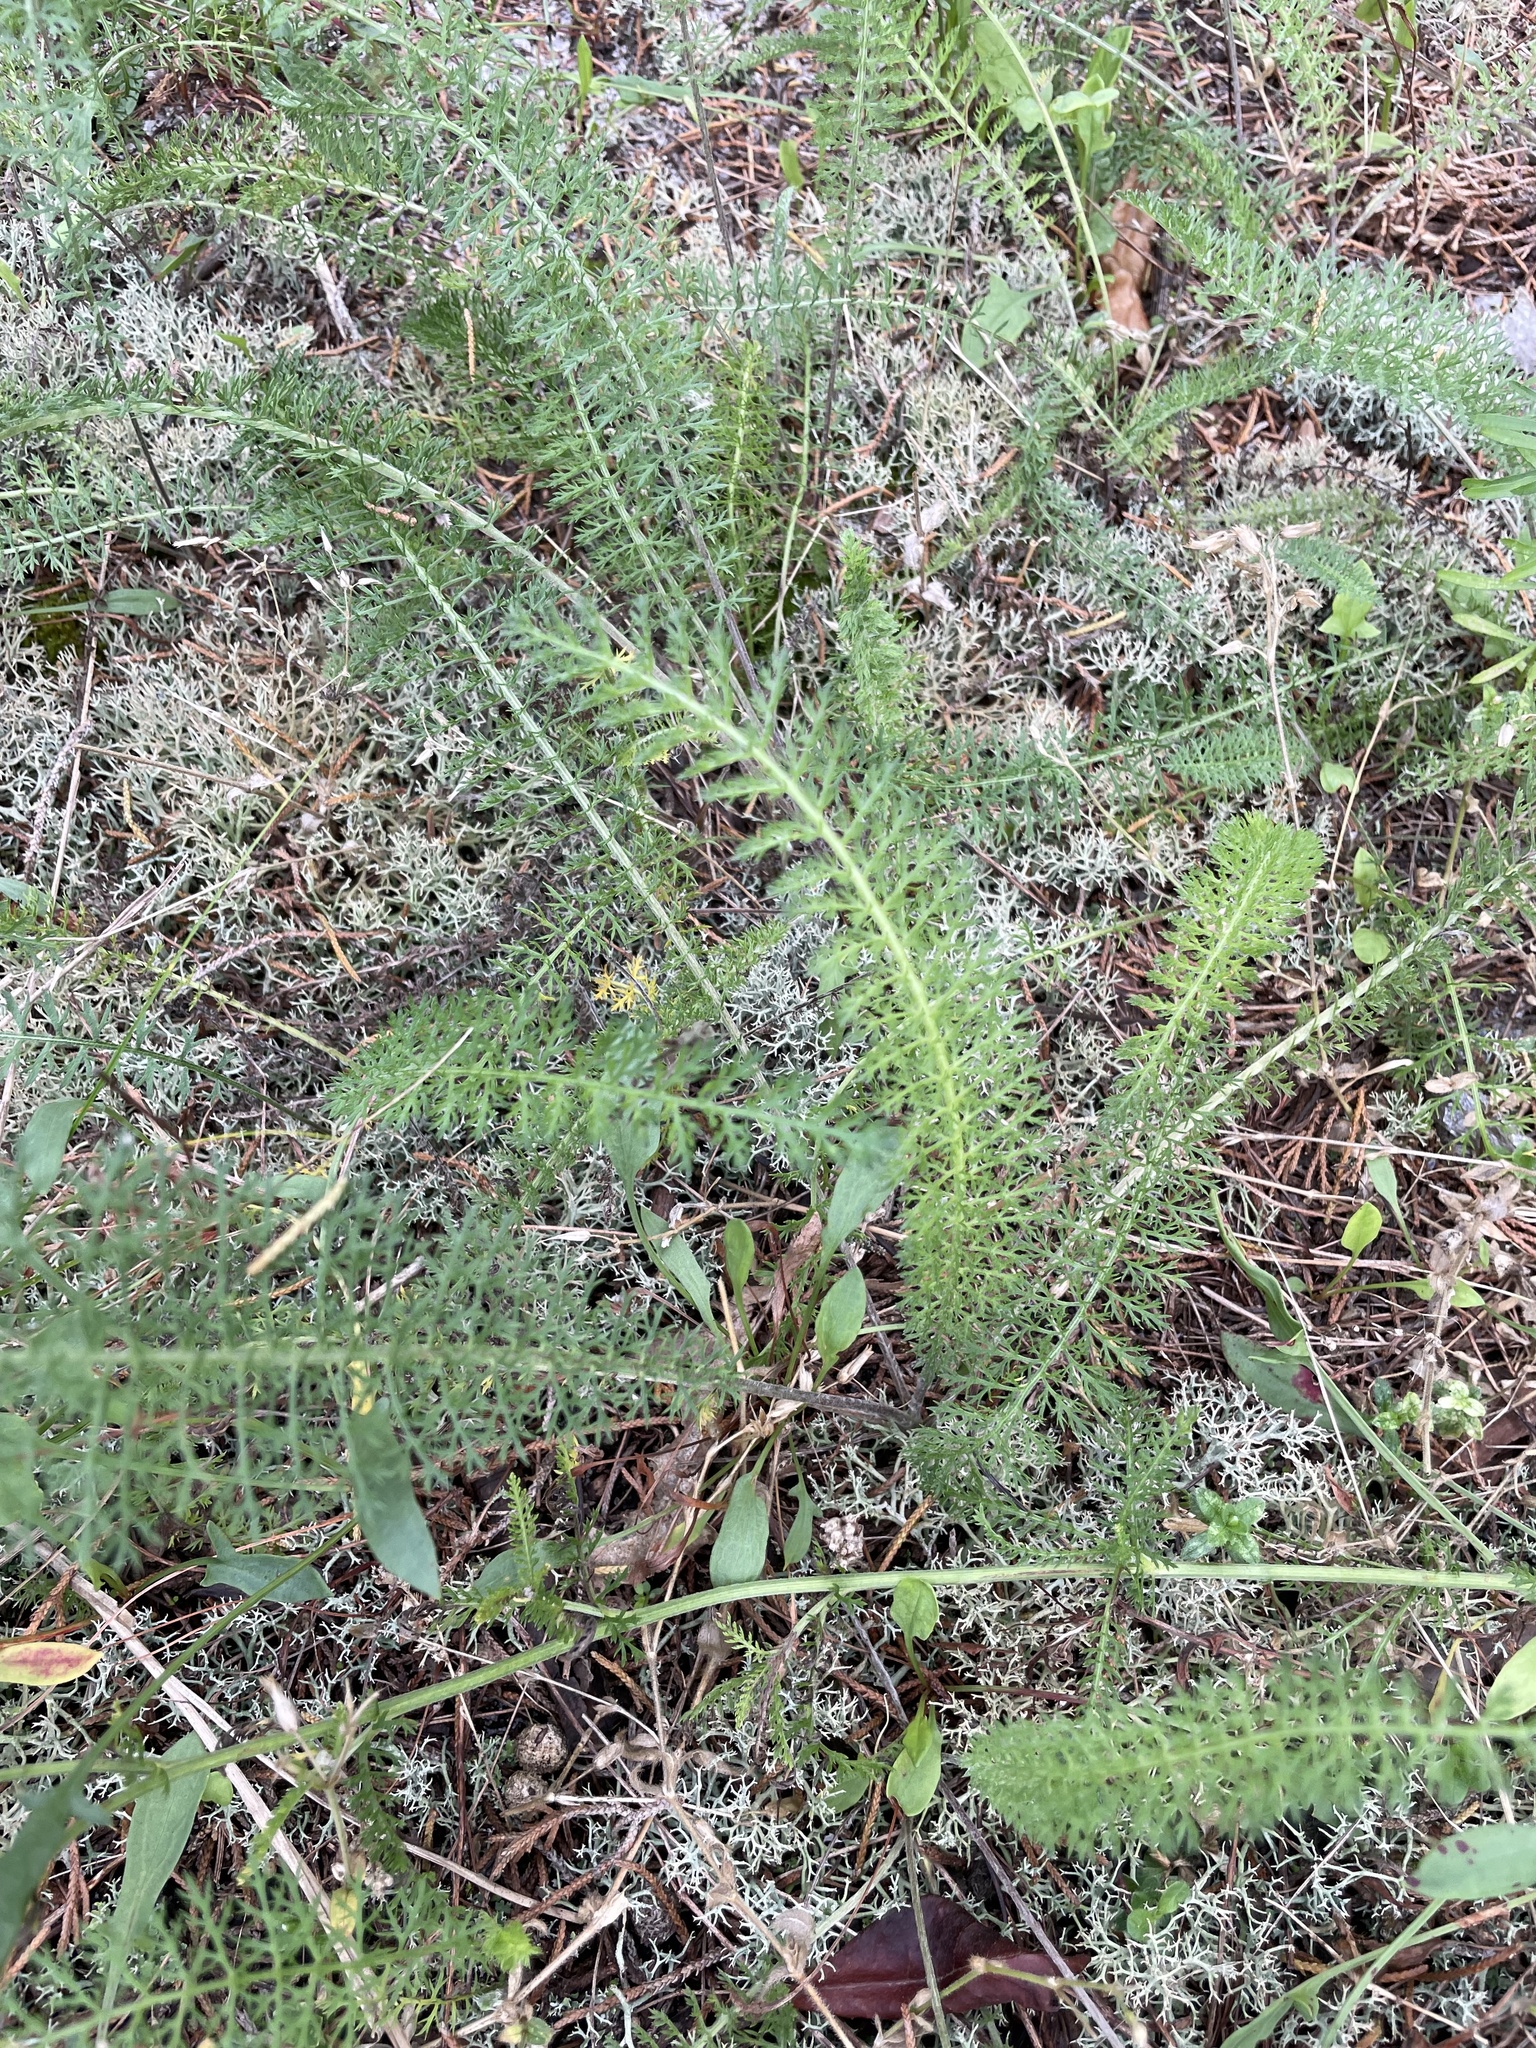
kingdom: Plantae
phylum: Tracheophyta
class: Magnoliopsida
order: Asterales
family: Asteraceae
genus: Achillea
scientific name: Achillea millefolium
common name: Yarrow
